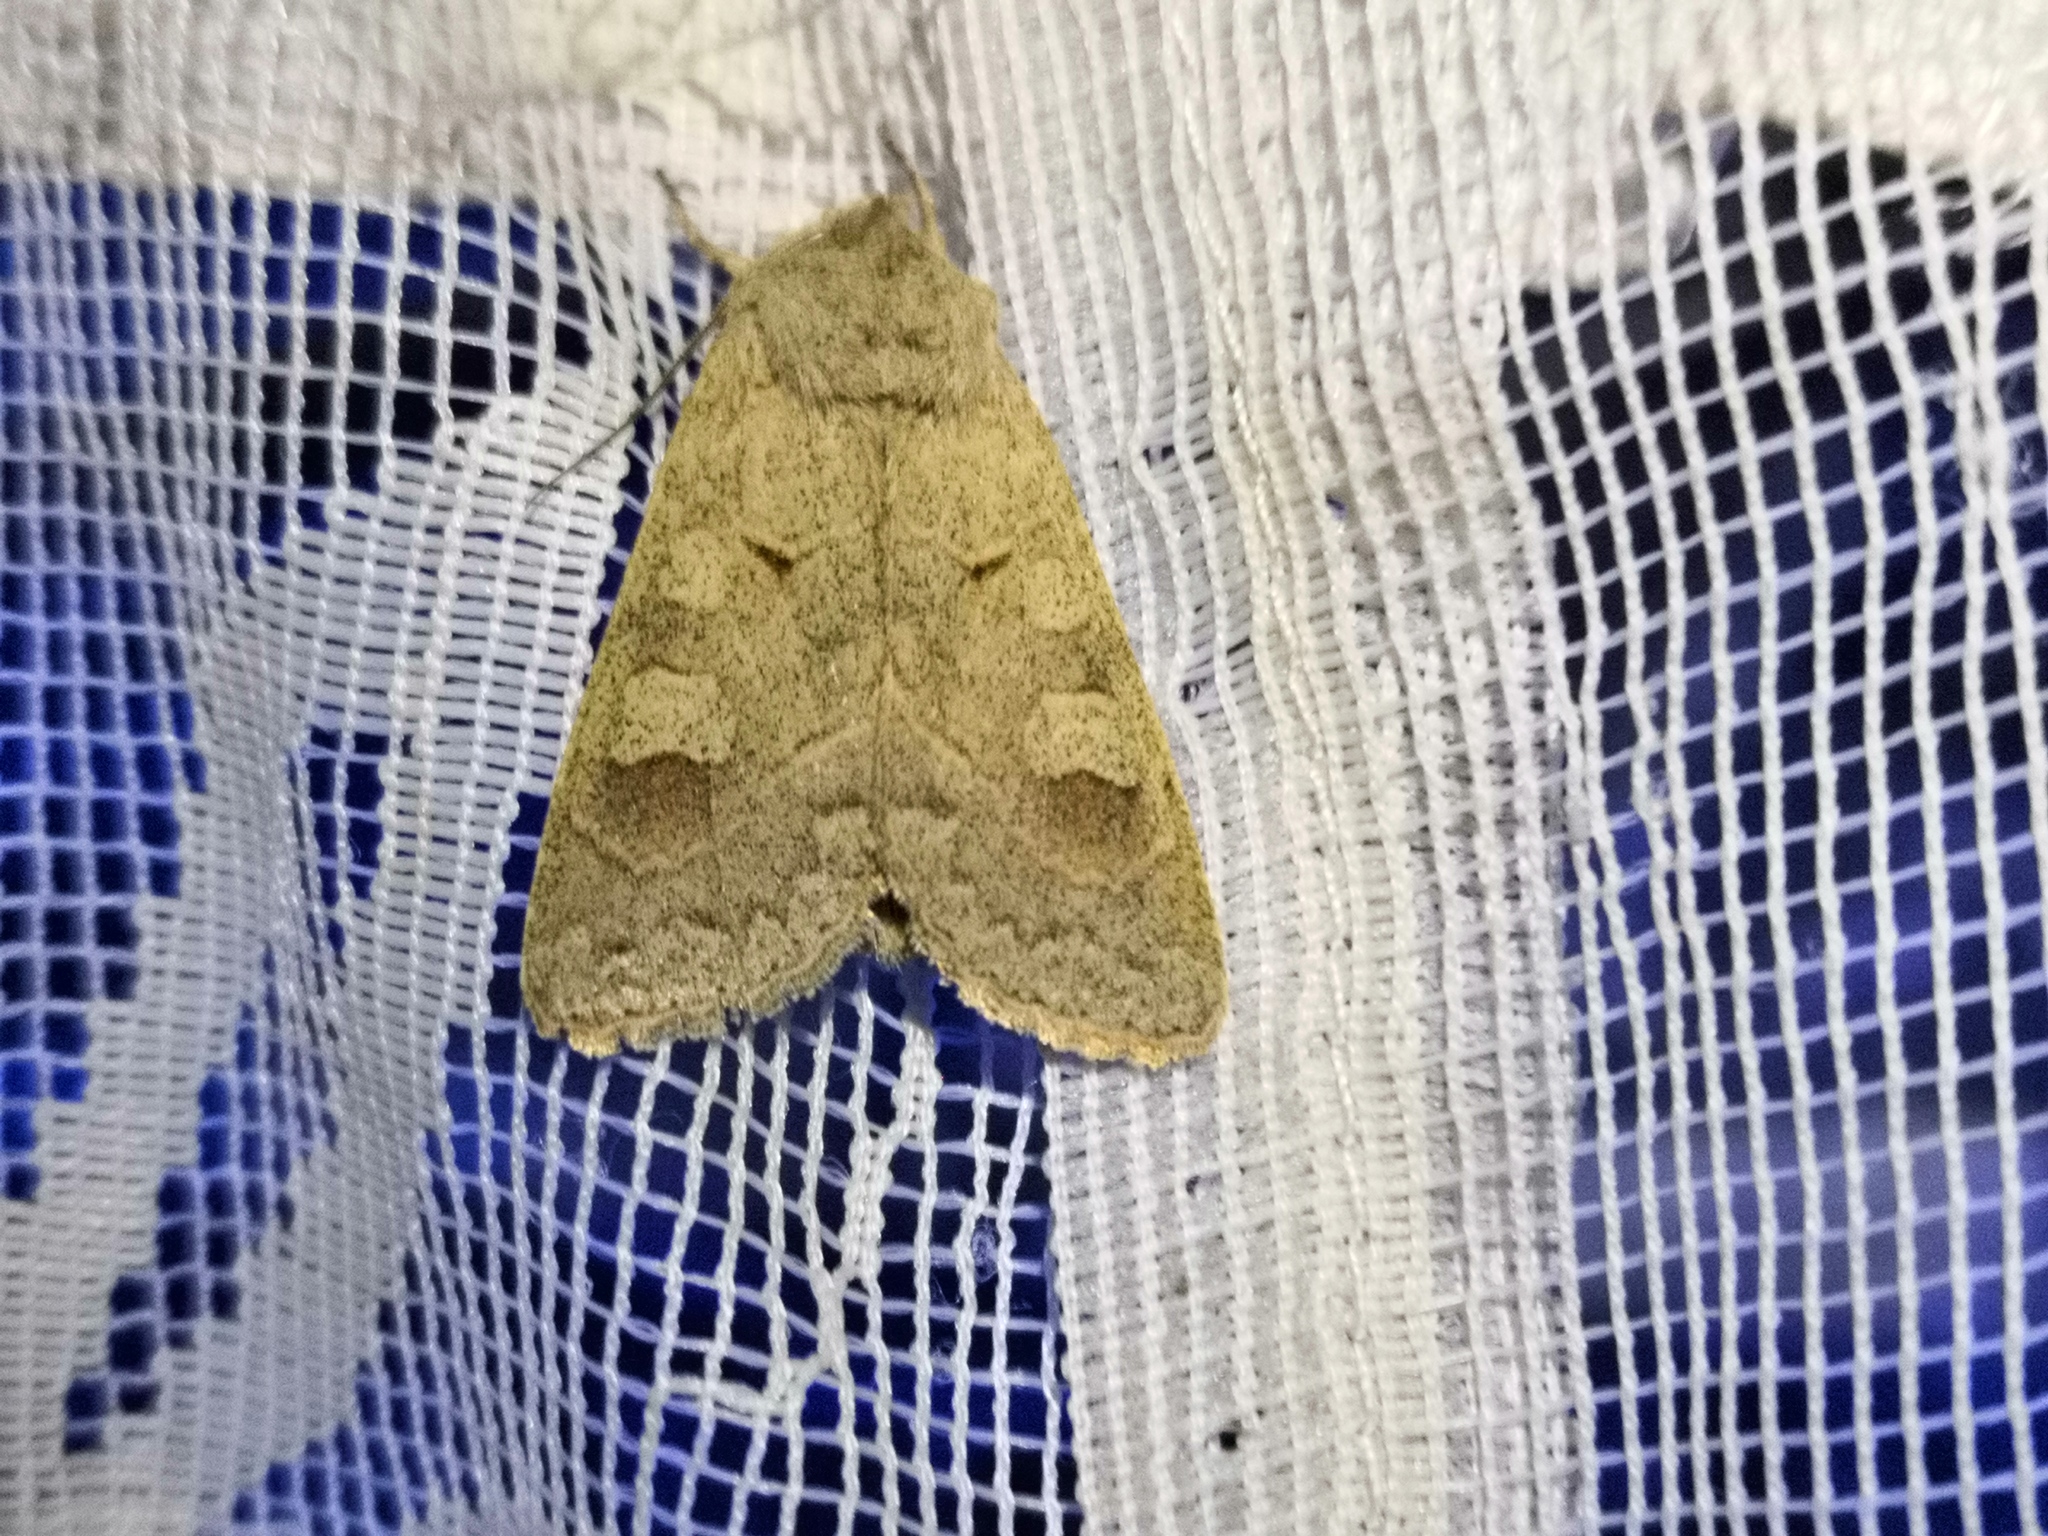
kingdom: Animalia
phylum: Arthropoda
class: Insecta
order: Lepidoptera
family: Noctuidae
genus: Ammoconia
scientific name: Ammoconia caecimacula
